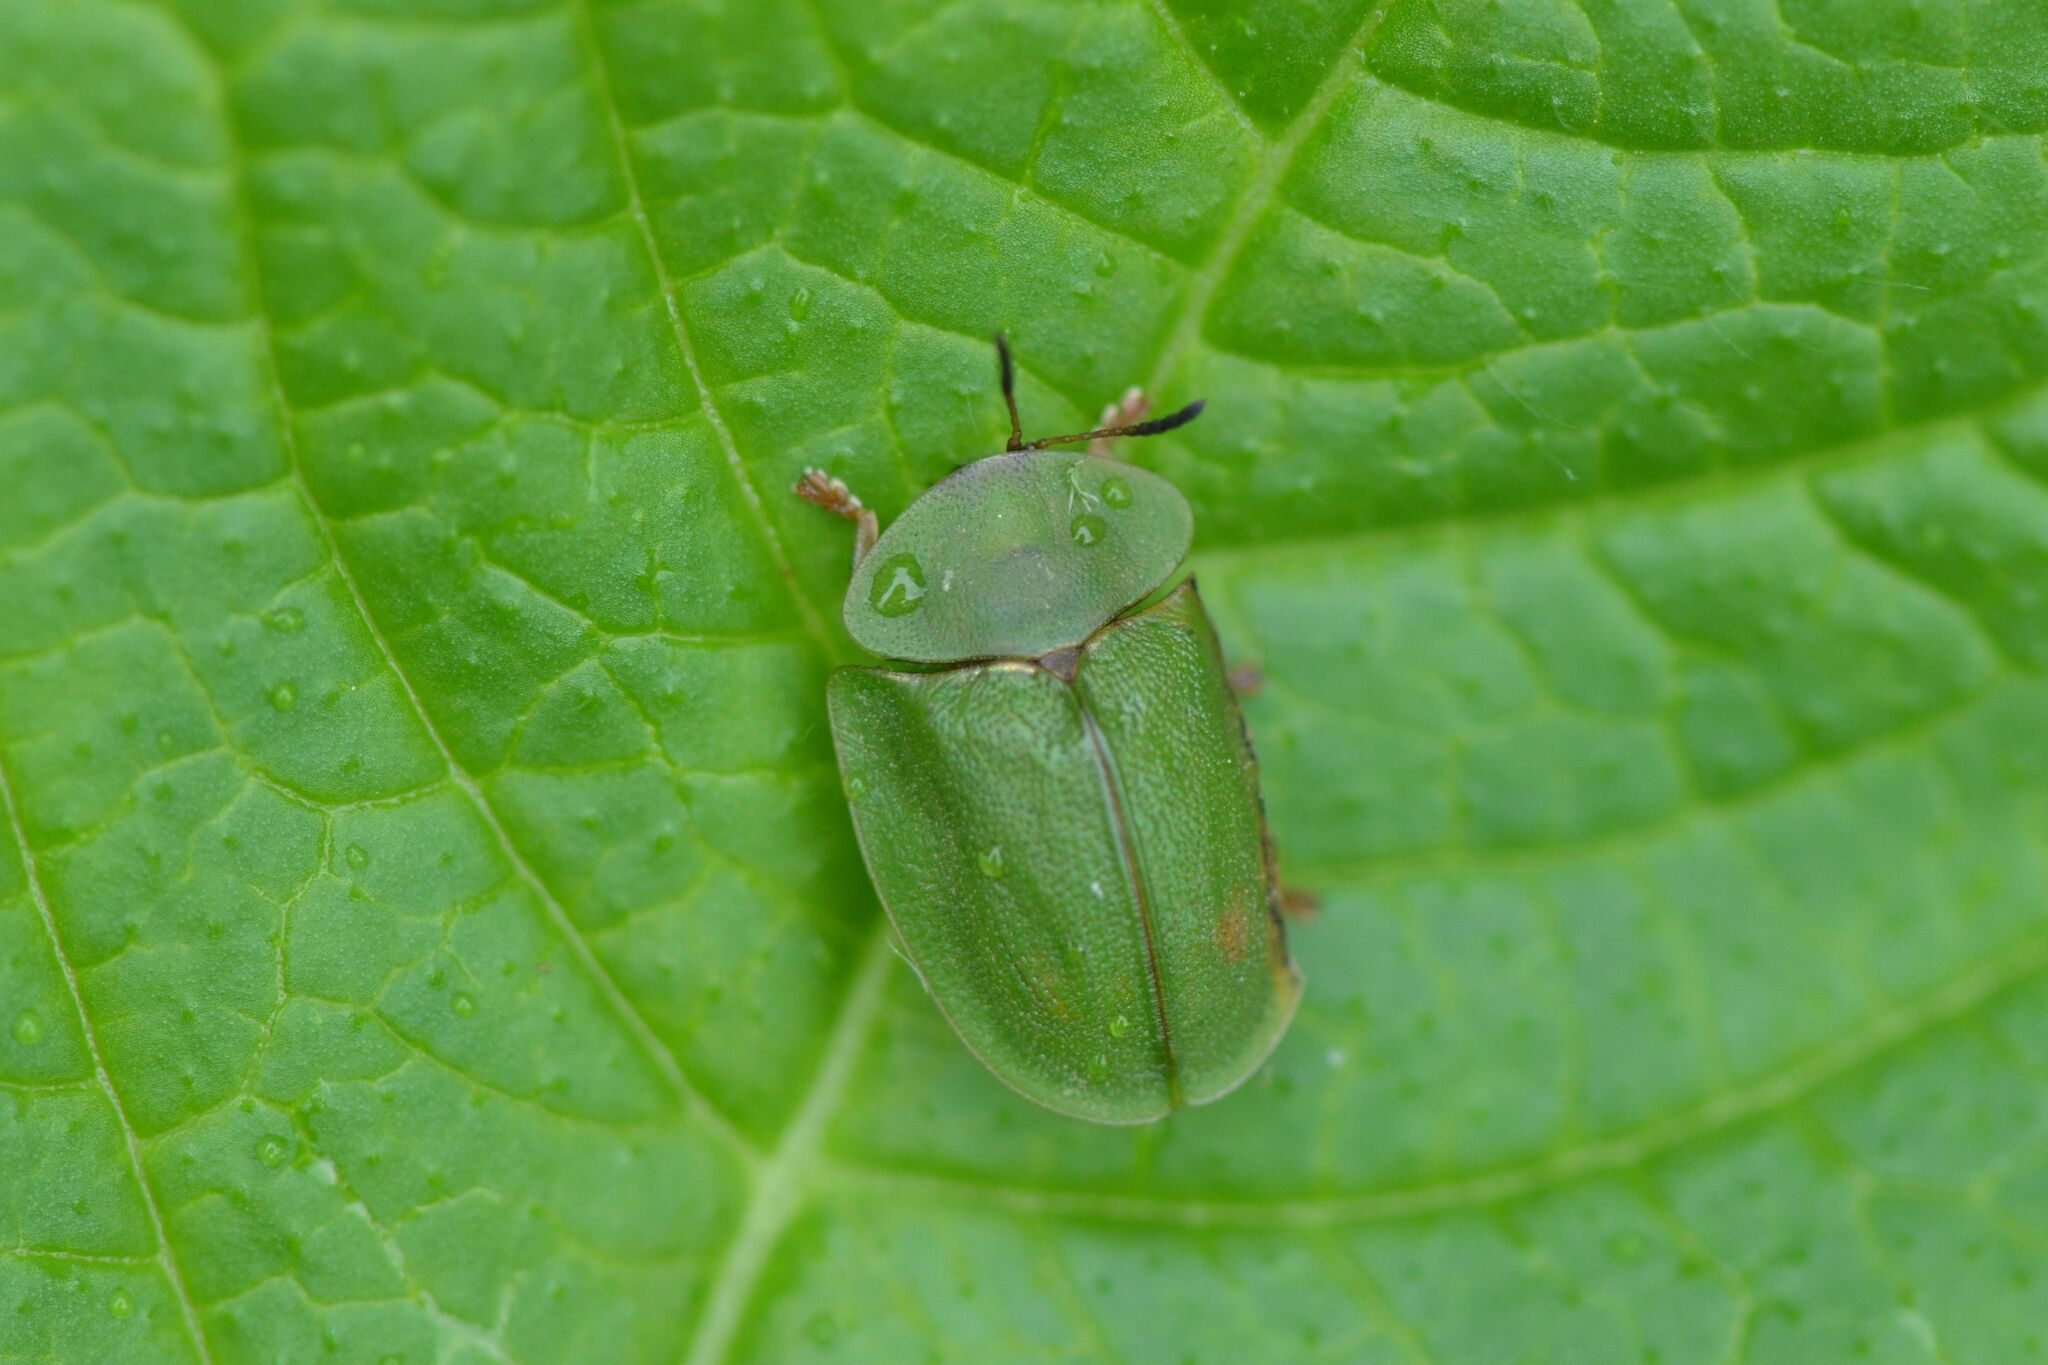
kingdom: Animalia
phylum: Arthropoda
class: Insecta
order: Coleoptera
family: Chrysomelidae
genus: Cassida
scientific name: Cassida viridis
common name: Green tortoise beetle
